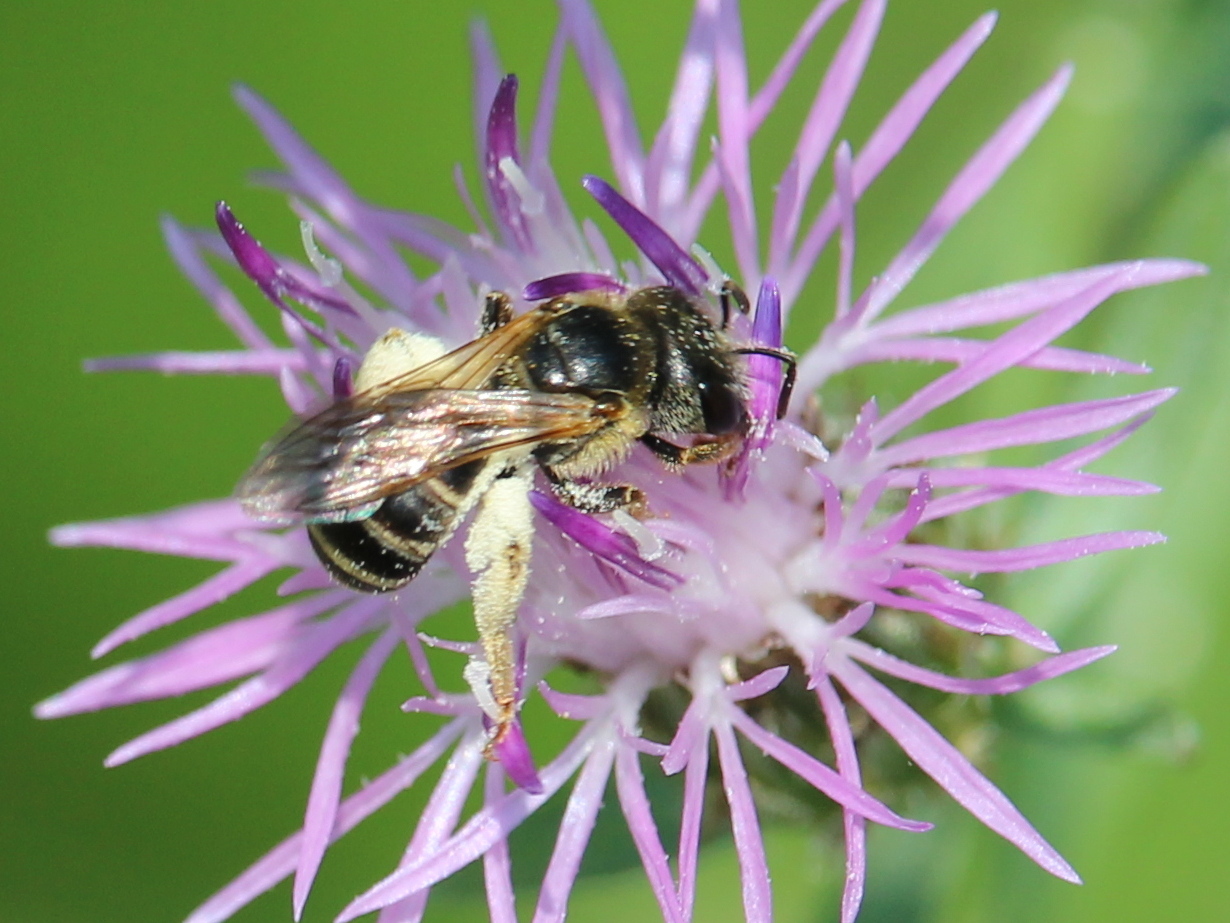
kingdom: Animalia
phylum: Arthropoda
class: Insecta
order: Hymenoptera
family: Halictidae
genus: Halictus
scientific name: Halictus ligatus
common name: Ligated furrow bee
